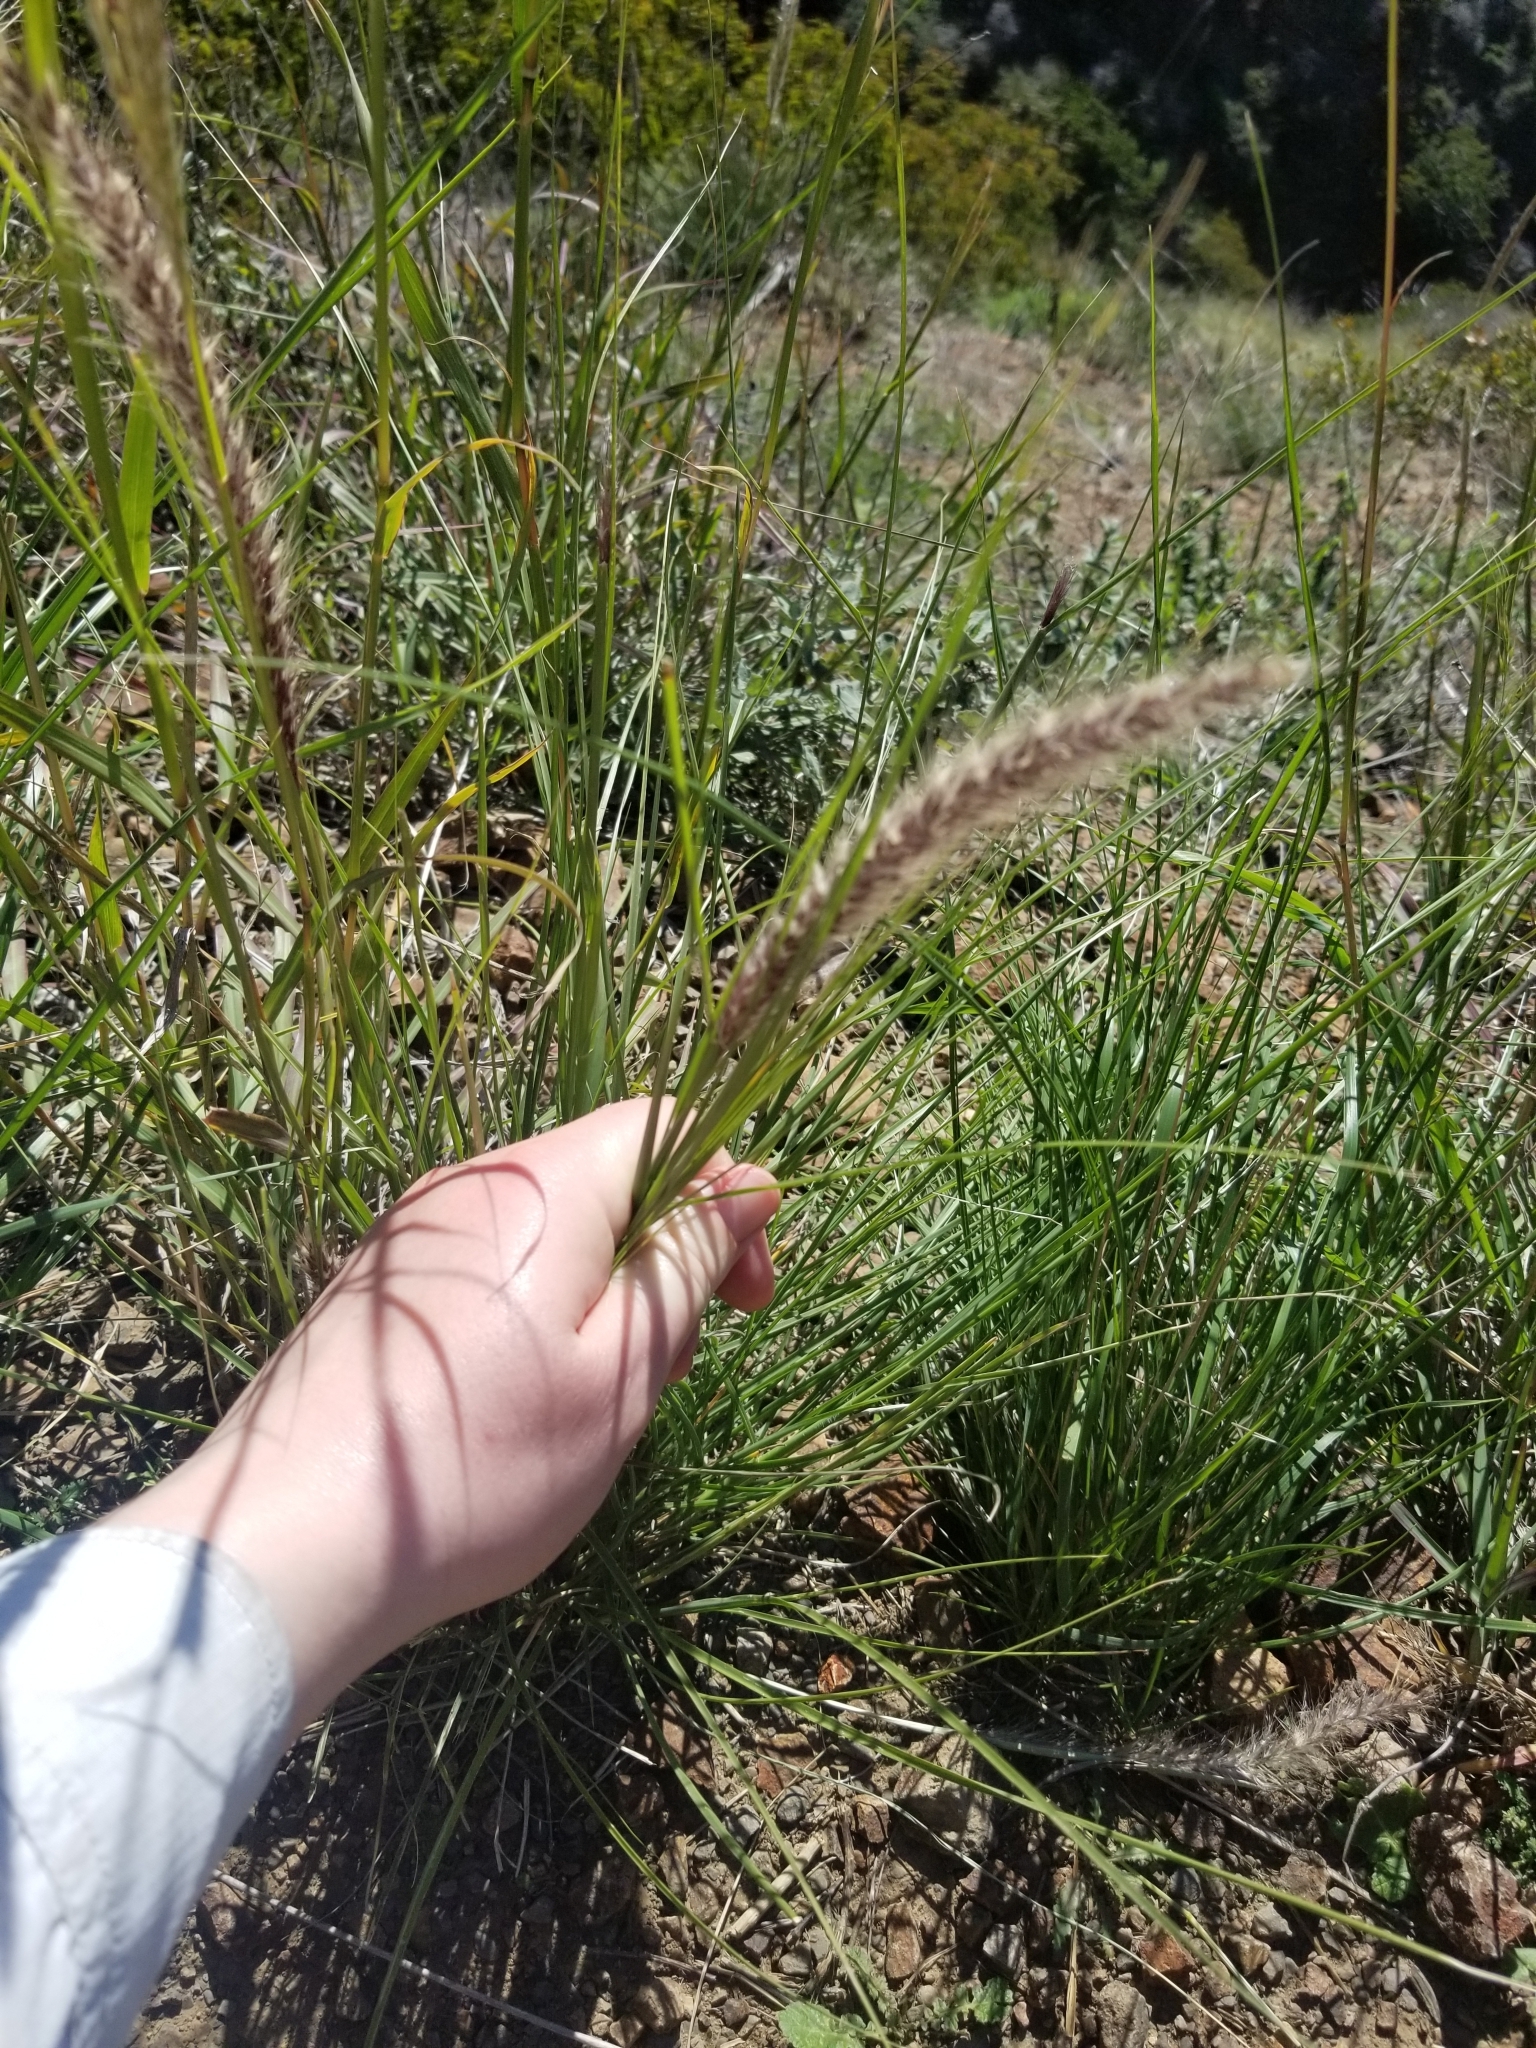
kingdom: Plantae
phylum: Tracheophyta
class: Liliopsida
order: Poales
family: Poaceae
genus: Cenchrus
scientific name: Cenchrus setaceus
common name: Crimson fountaingrass
